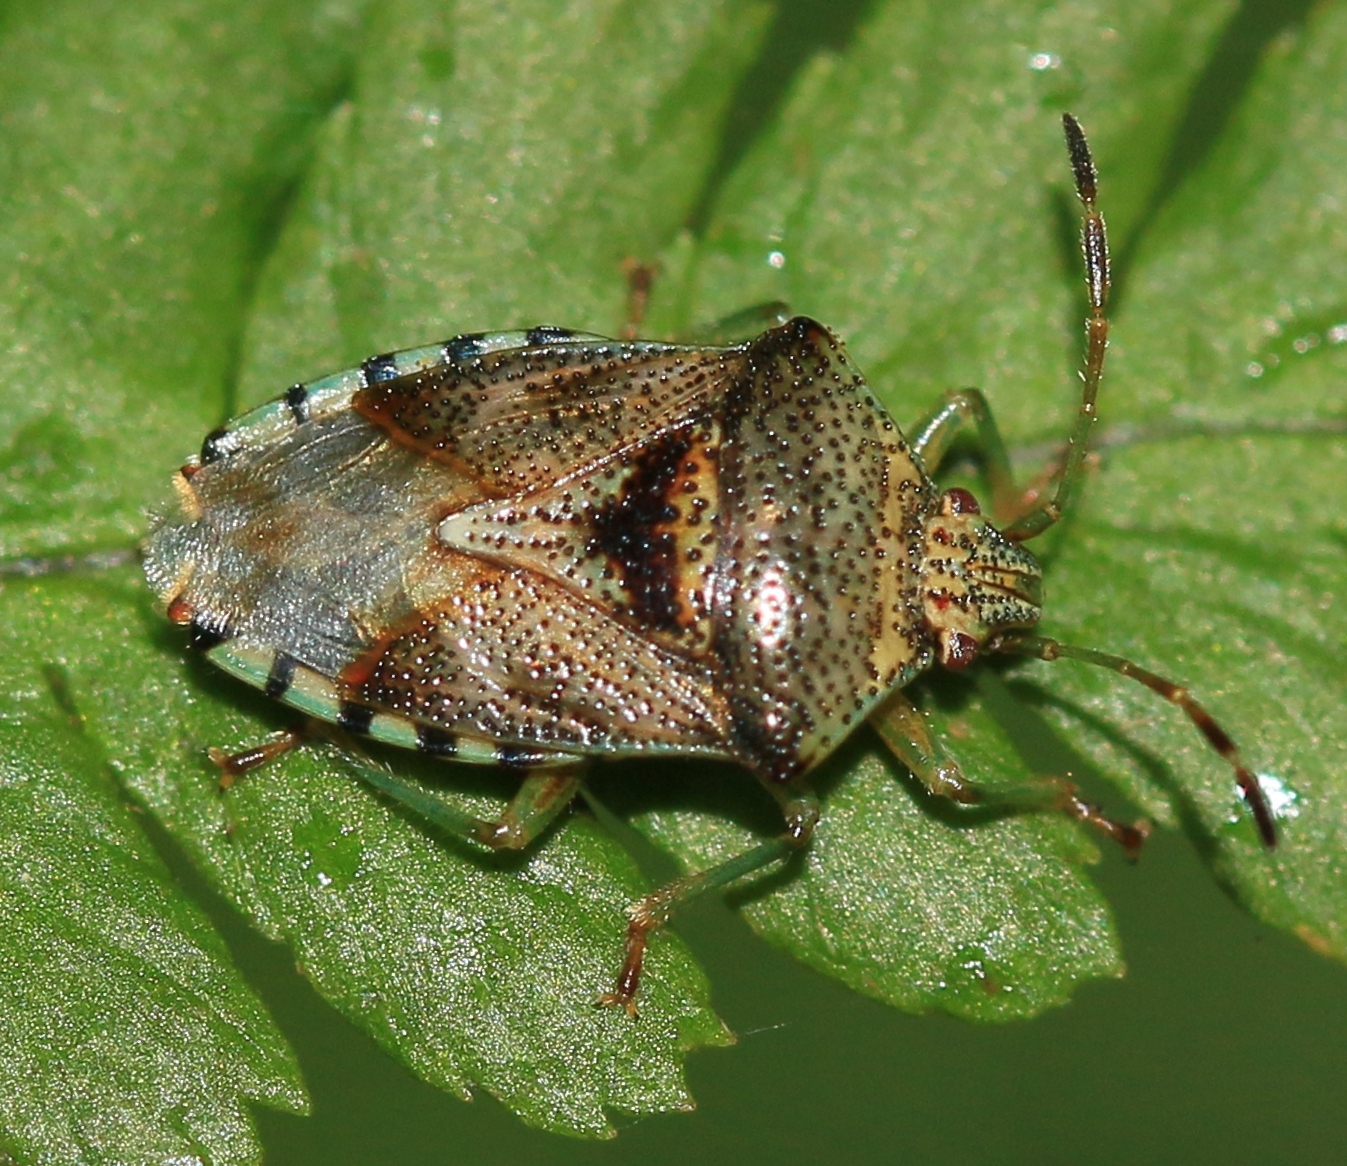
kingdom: Animalia
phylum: Arthropoda
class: Insecta
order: Hemiptera
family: Acanthosomatidae
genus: Elasmucha
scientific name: Elasmucha grisea
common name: Parent bug
